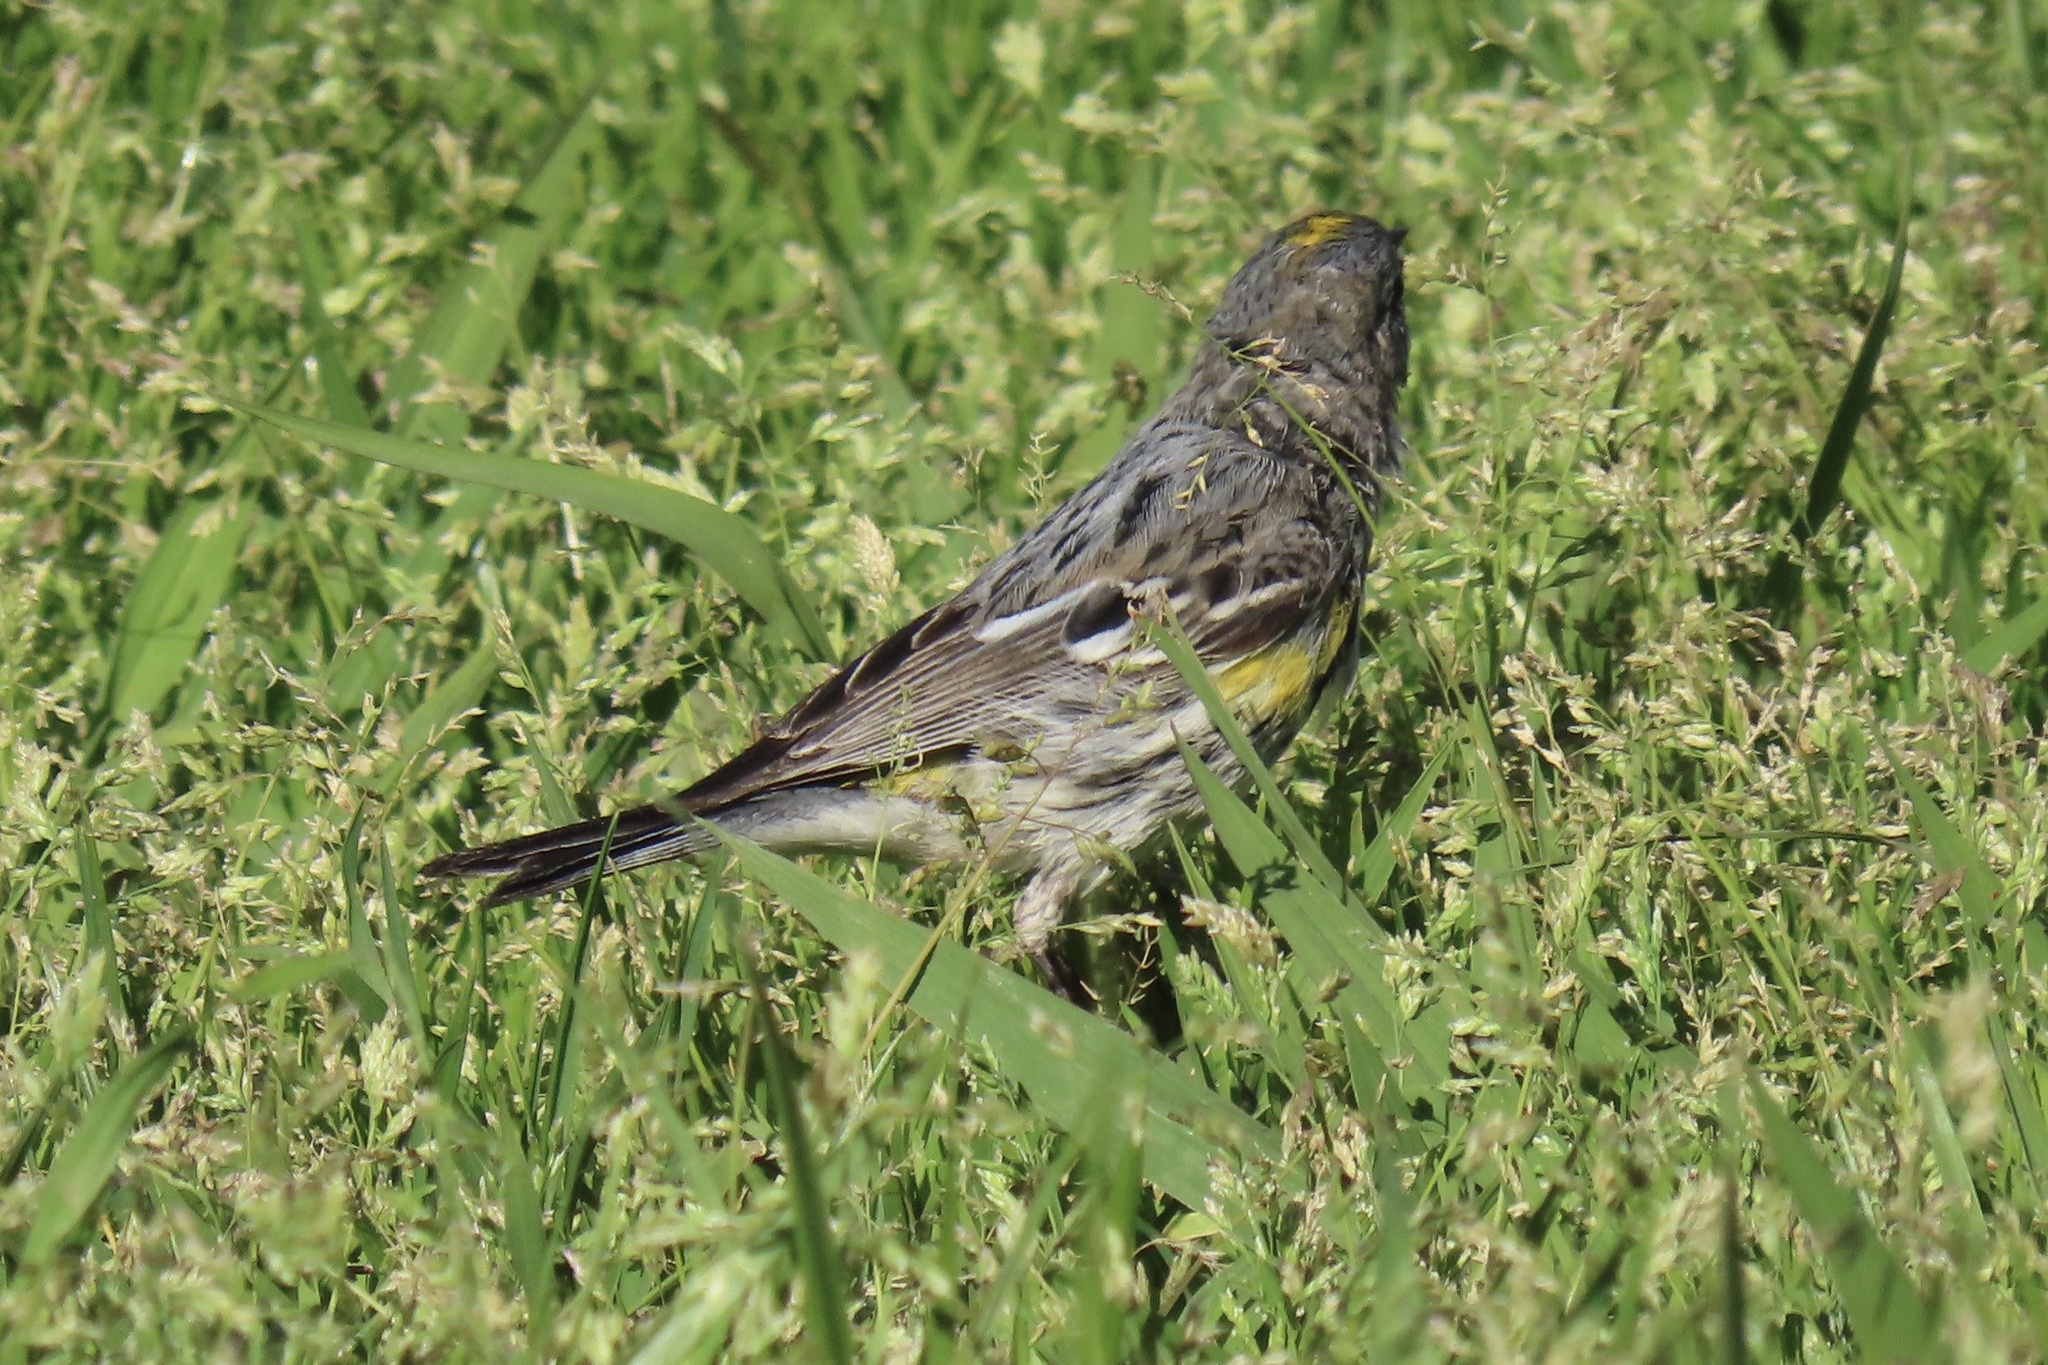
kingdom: Animalia
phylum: Chordata
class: Aves
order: Passeriformes
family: Parulidae
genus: Setophaga
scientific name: Setophaga coronata
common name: Myrtle warbler
